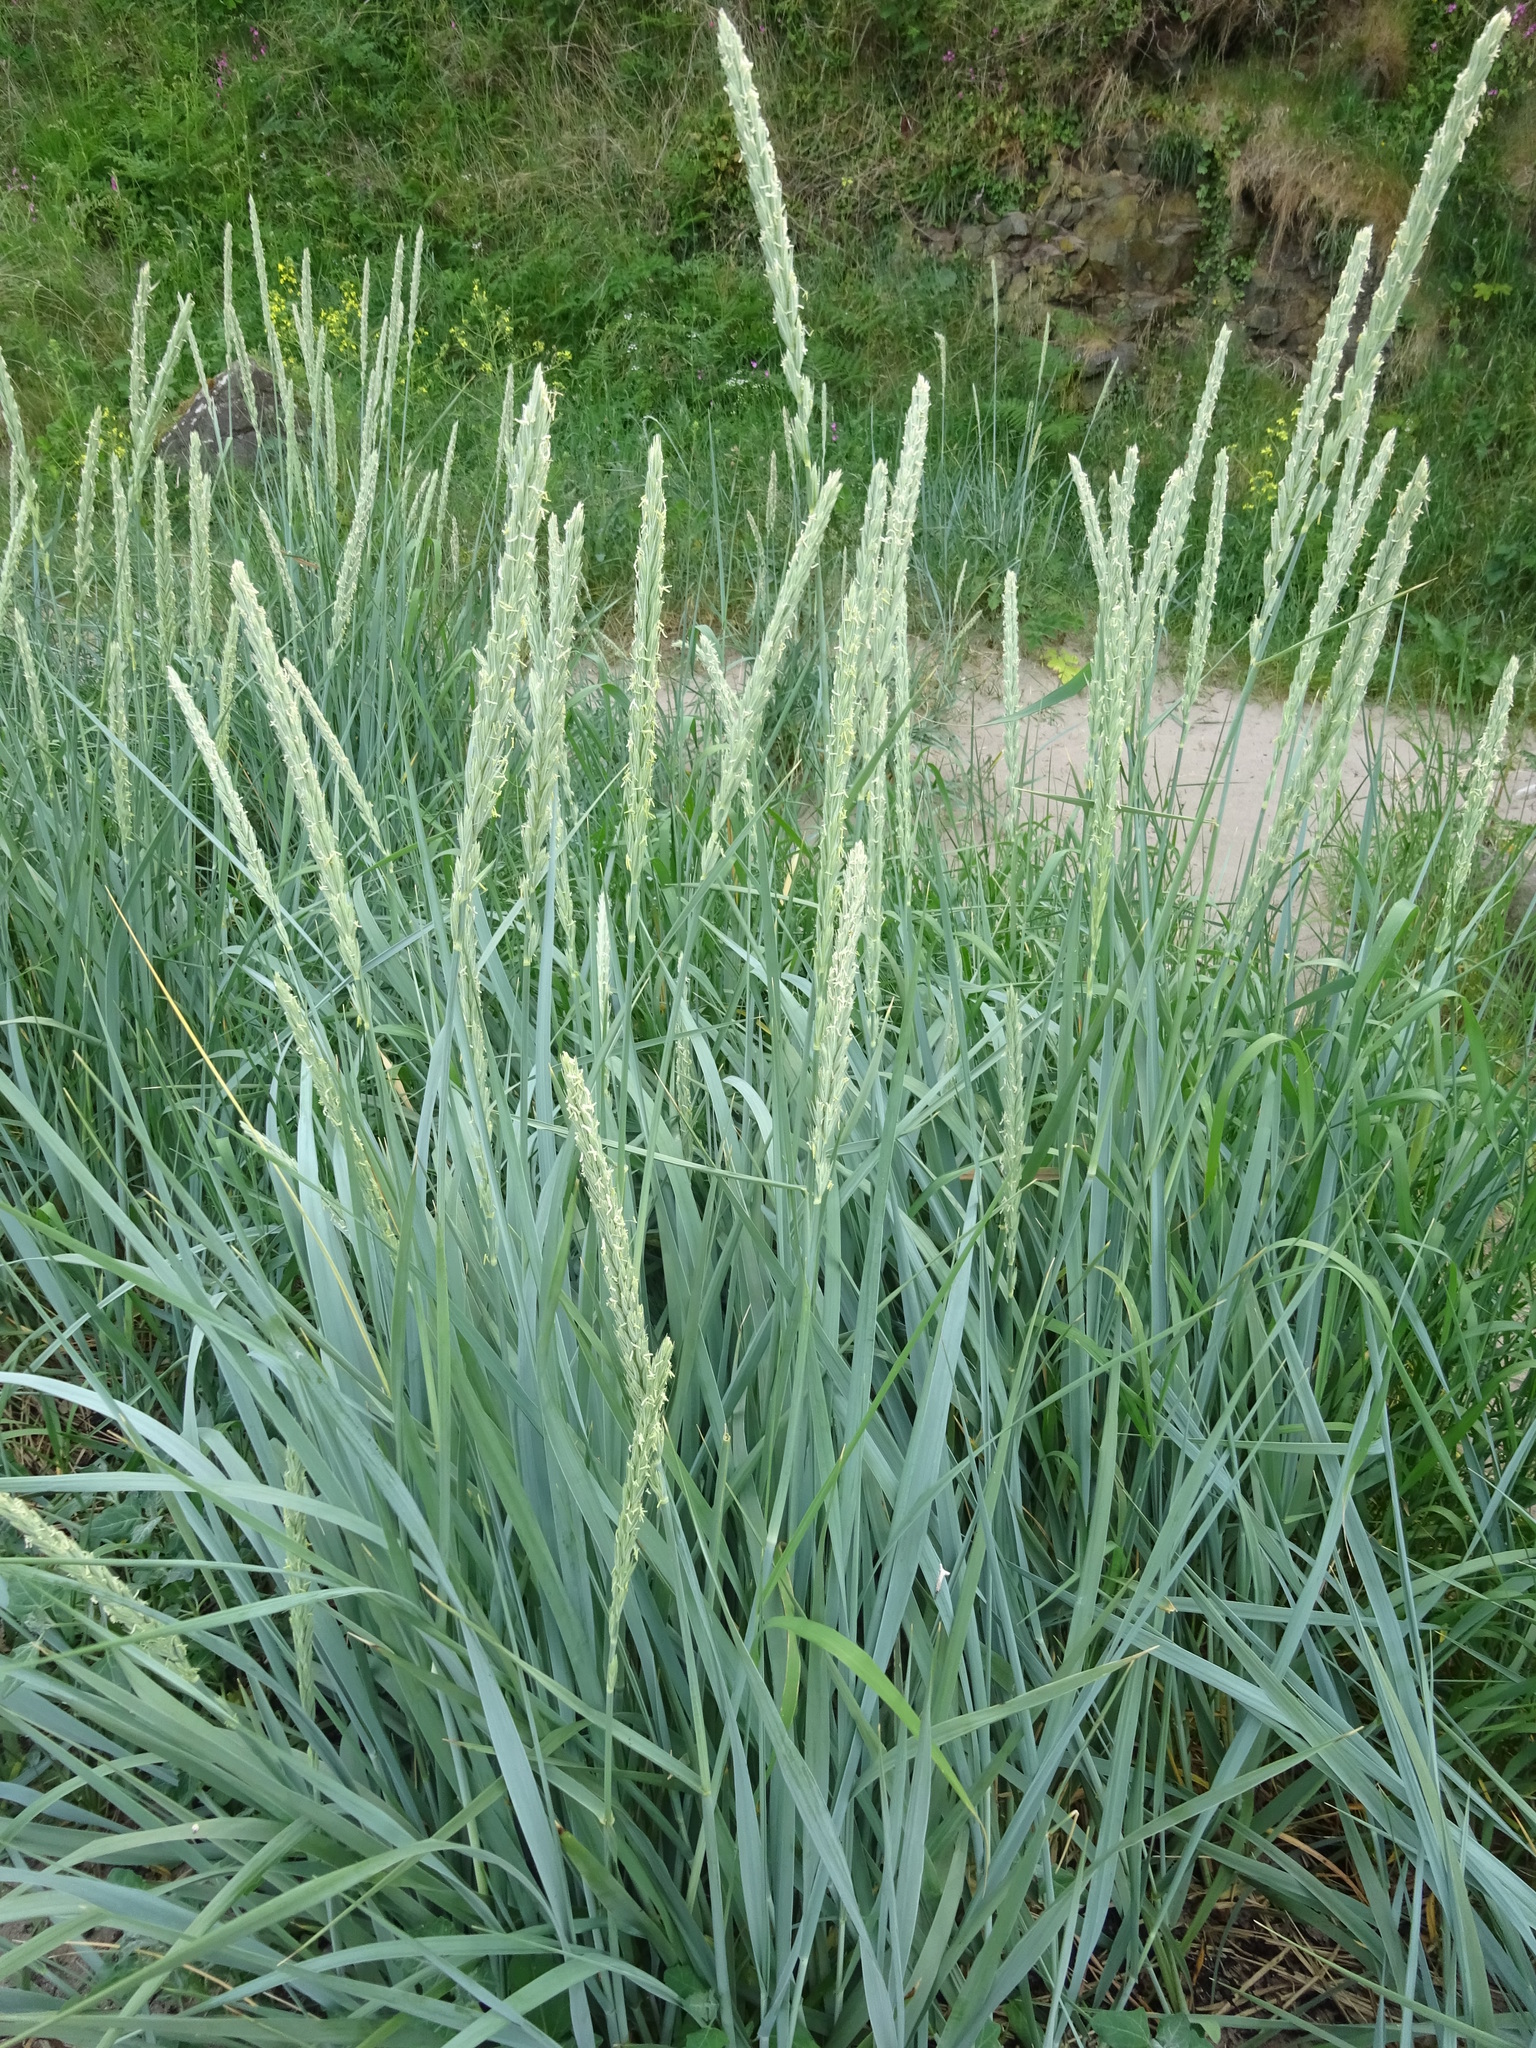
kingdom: Plantae
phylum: Tracheophyta
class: Liliopsida
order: Poales
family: Poaceae
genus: Leymus
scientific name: Leymus arenarius
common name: Lyme-grass
